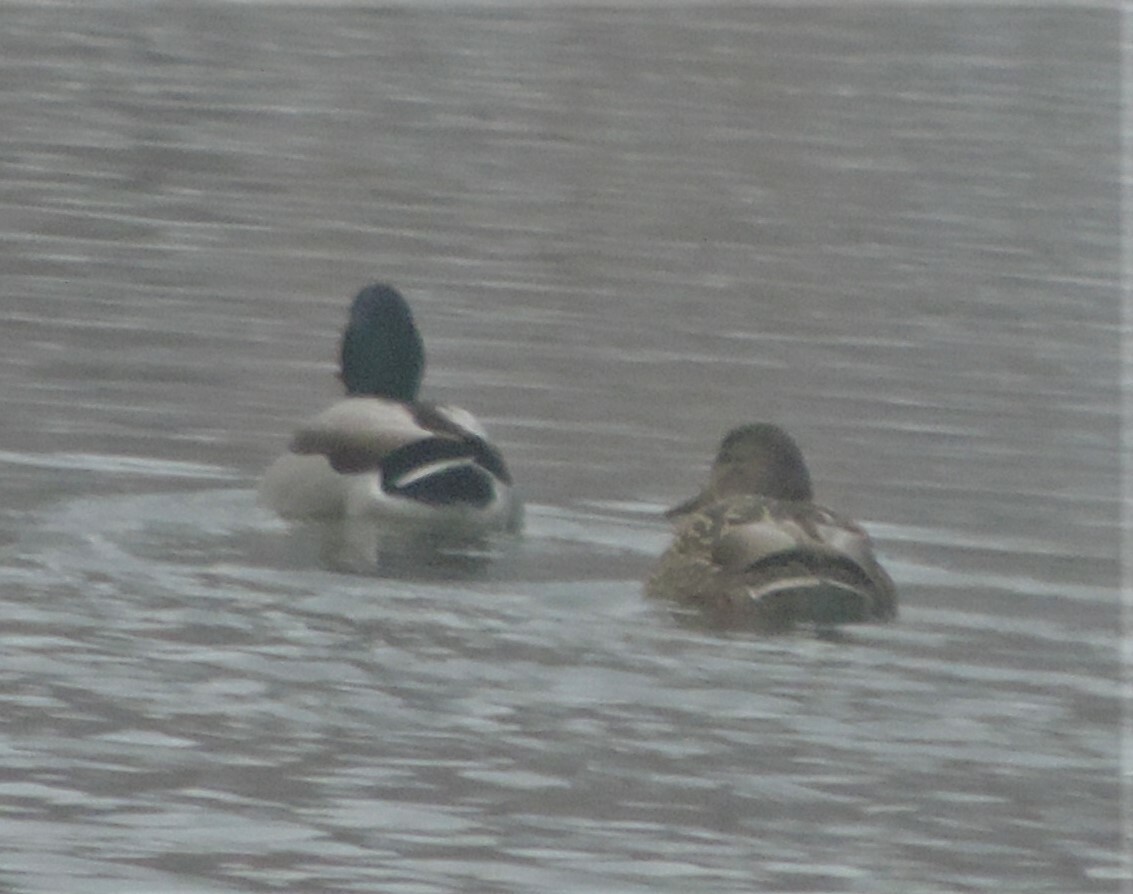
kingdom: Animalia
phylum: Chordata
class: Aves
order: Anseriformes
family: Anatidae
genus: Anas
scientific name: Anas platyrhynchos
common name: Mallard
